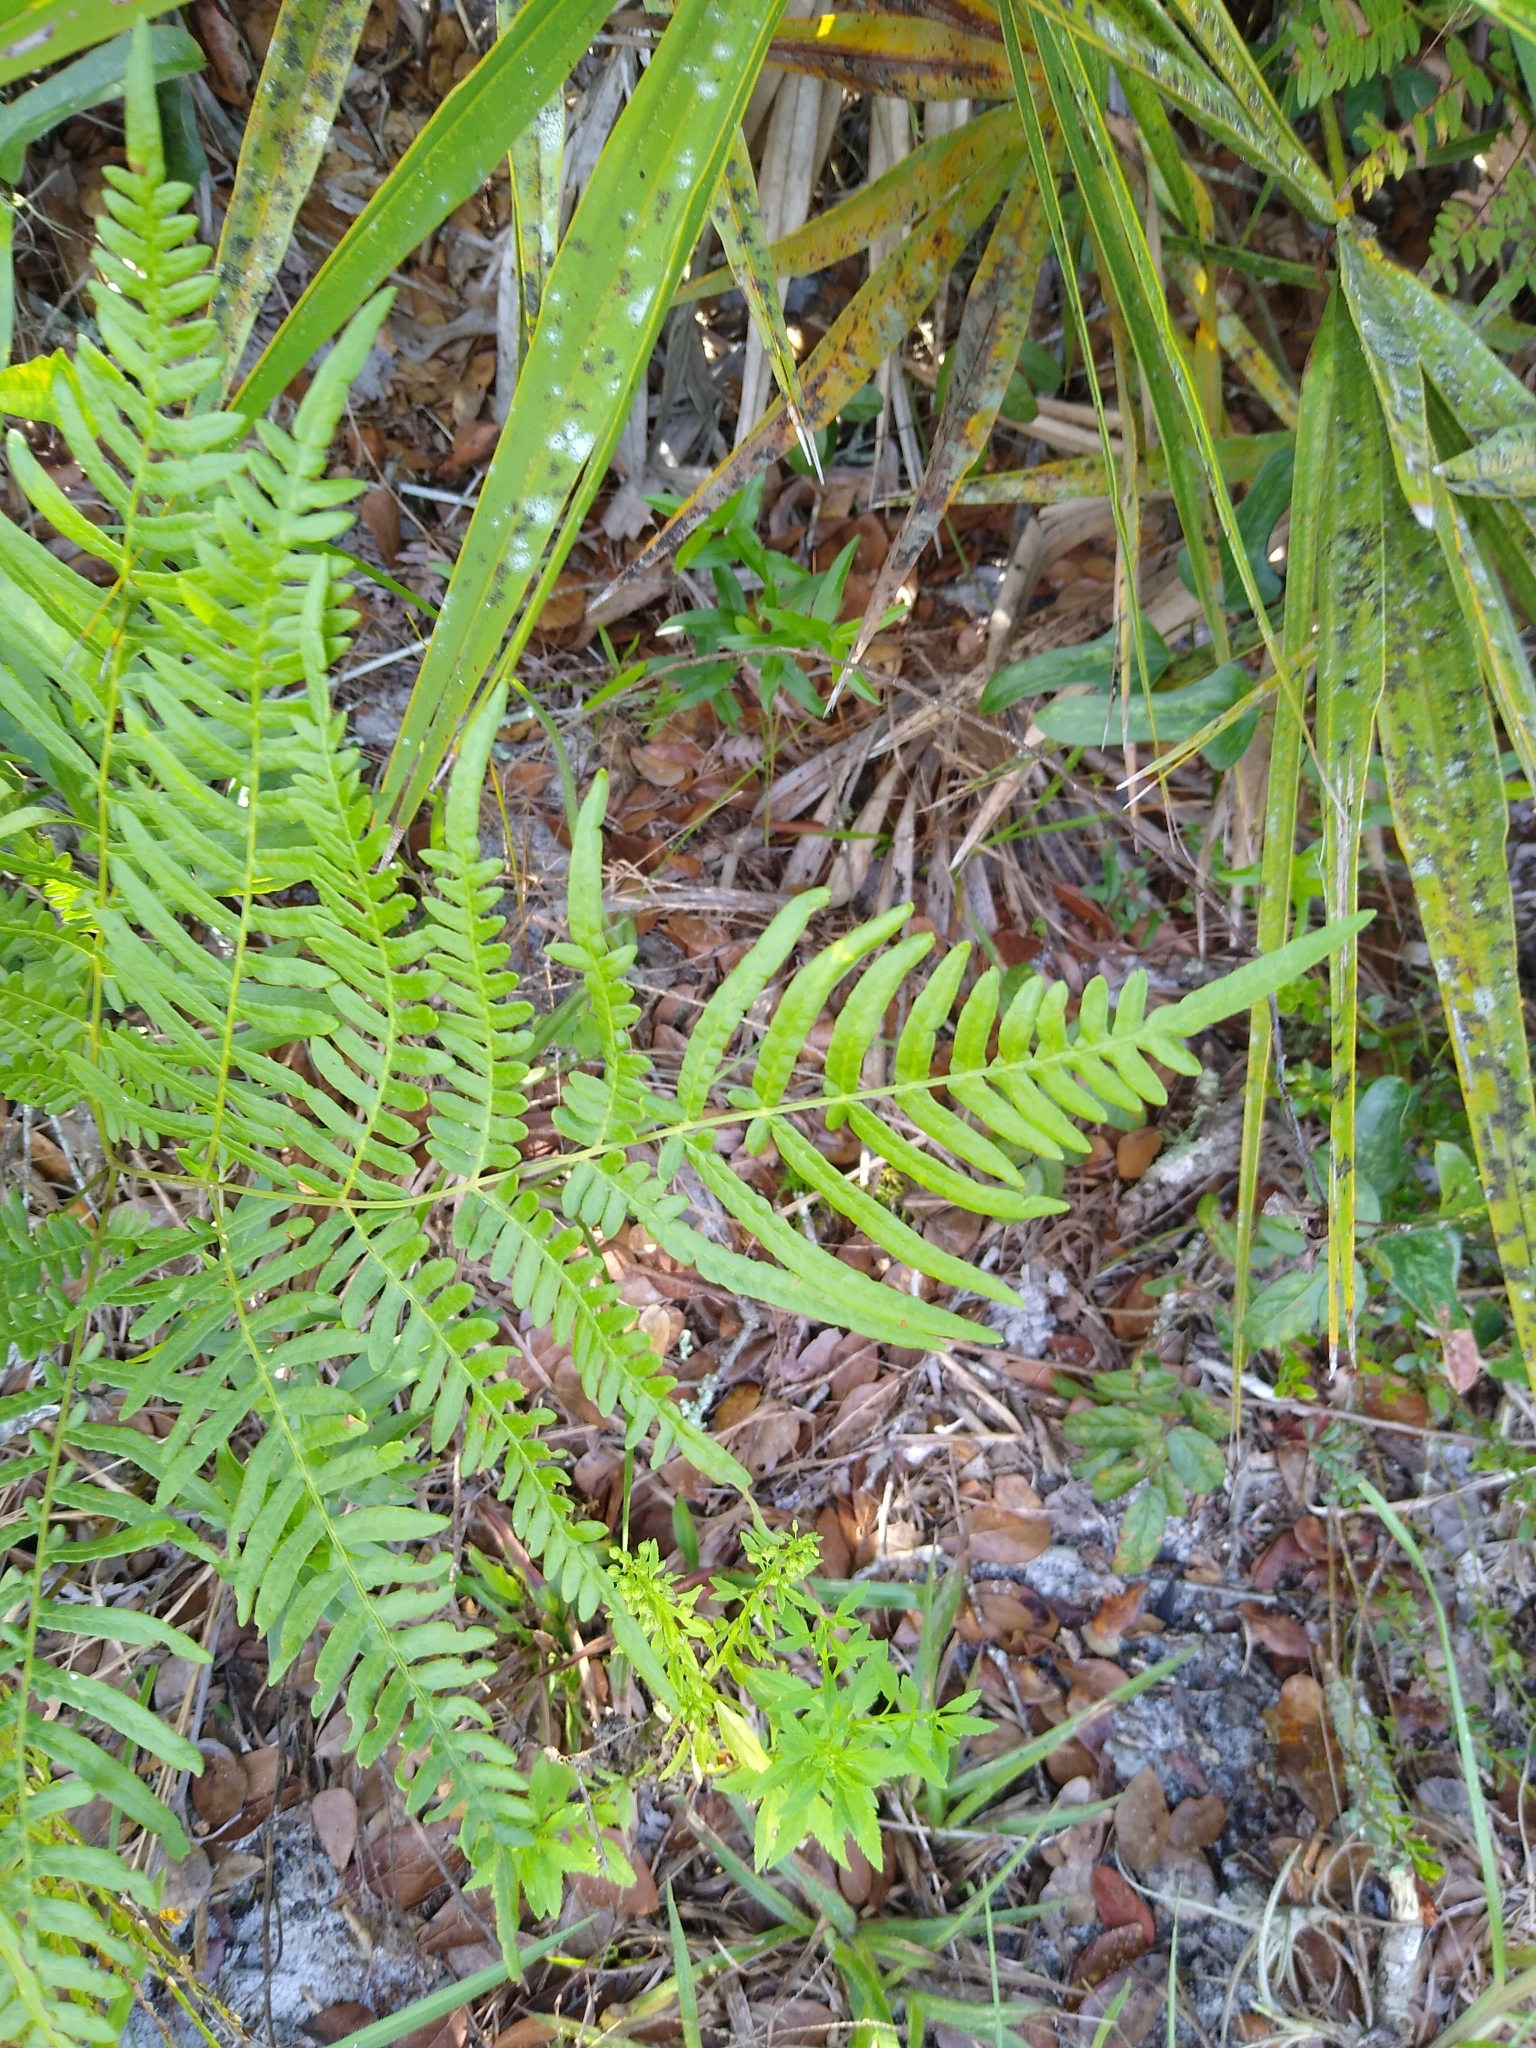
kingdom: Plantae
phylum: Tracheophyta
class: Polypodiopsida
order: Polypodiales
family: Dennstaedtiaceae
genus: Pteridium
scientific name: Pteridium
